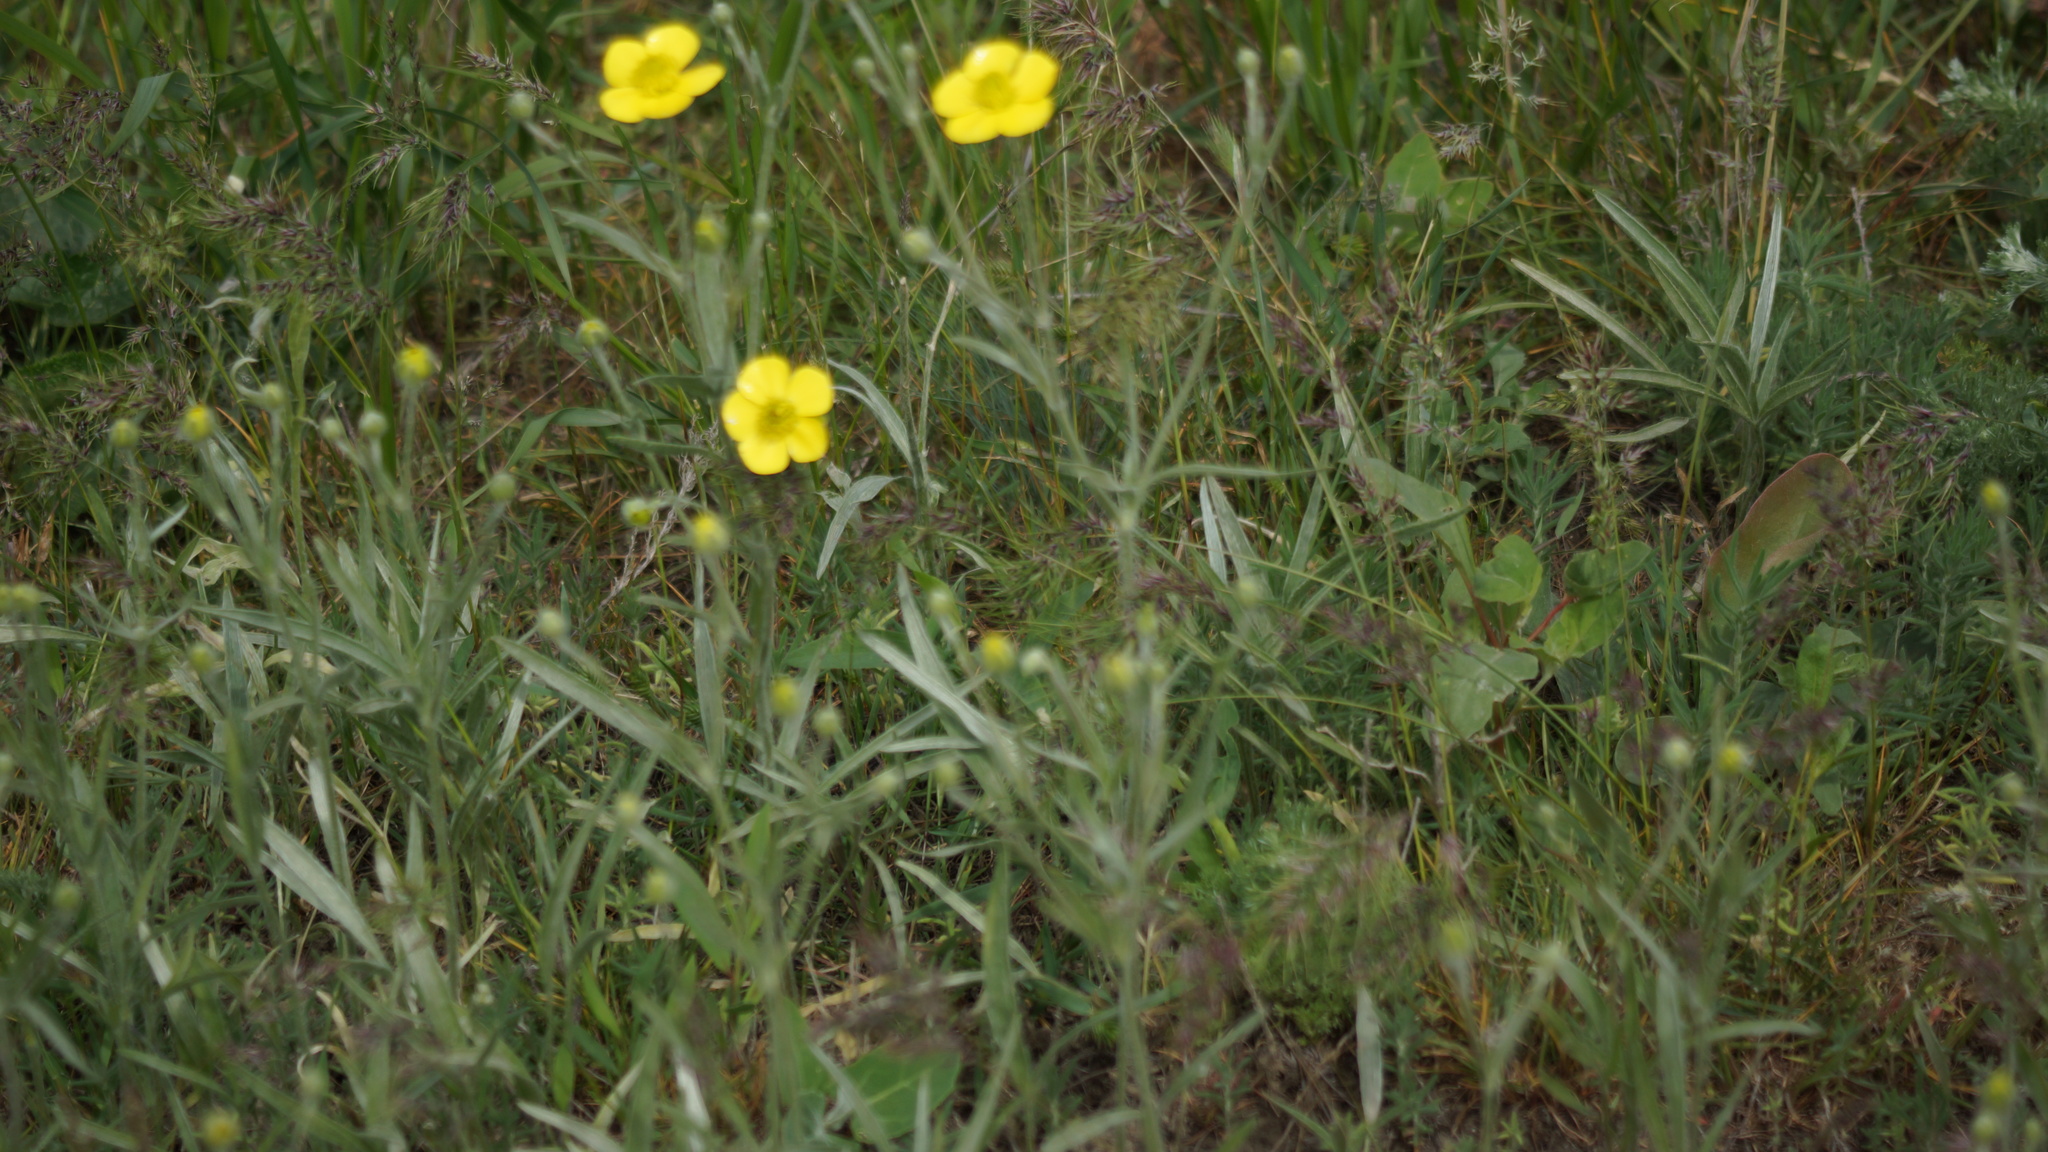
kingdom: Plantae
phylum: Tracheophyta
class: Magnoliopsida
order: Ranunculales
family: Ranunculaceae
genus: Ranunculus
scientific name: Ranunculus illyricus
